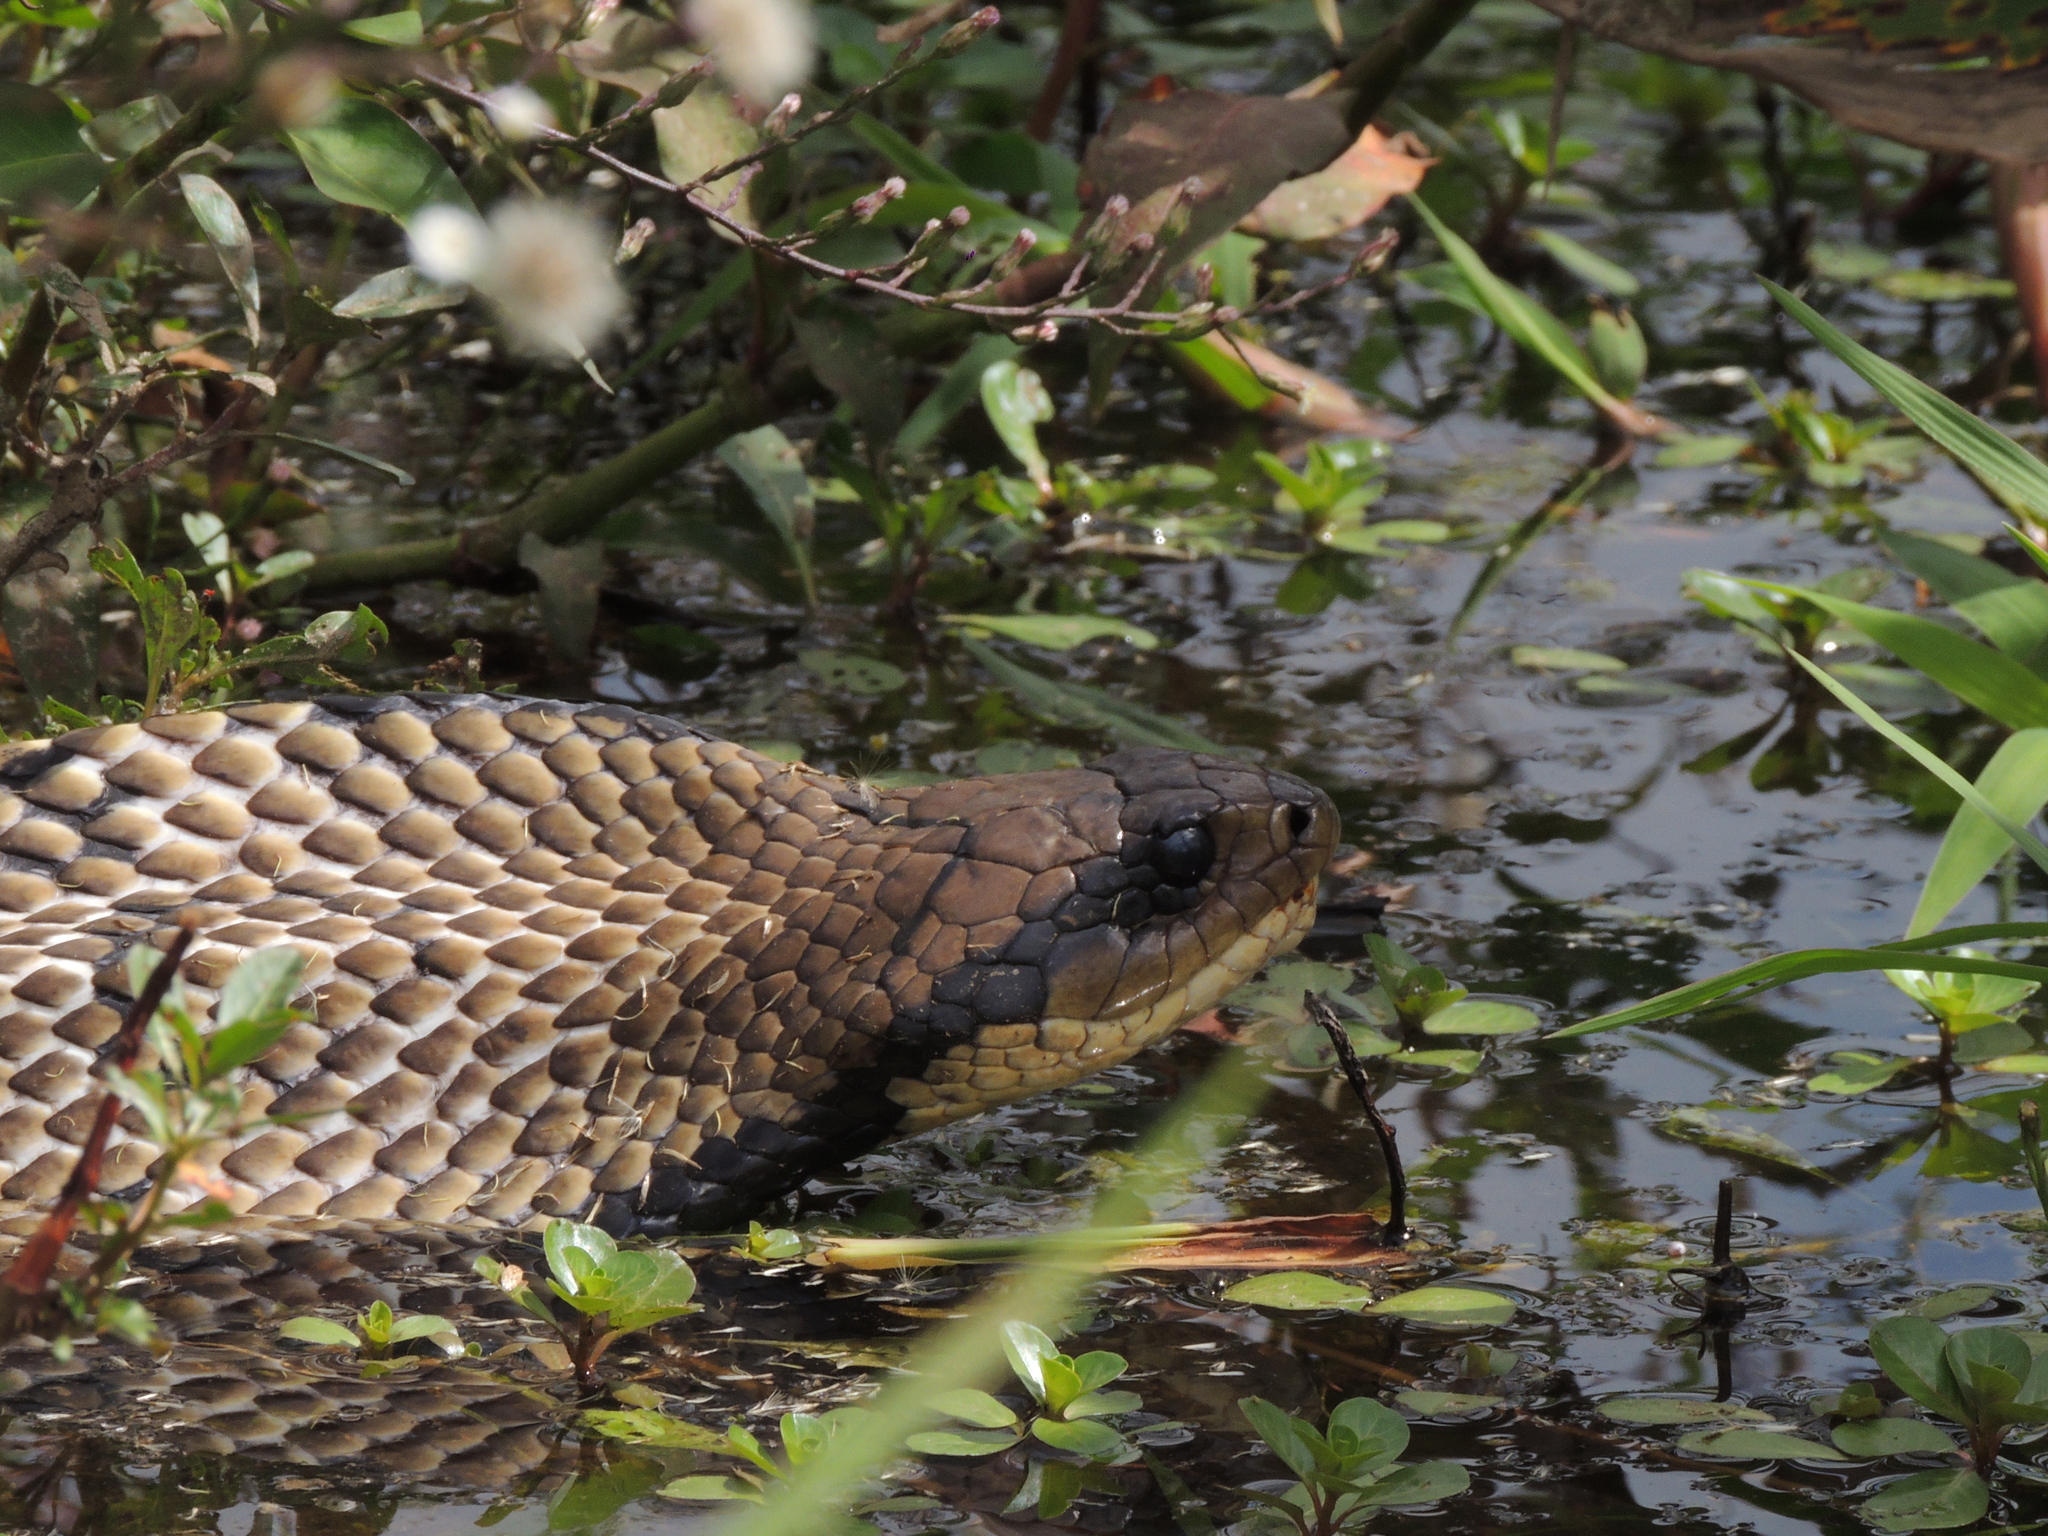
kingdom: Animalia
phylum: Chordata
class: Squamata
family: Colubridae
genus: Hydrodynastes
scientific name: Hydrodynastes gigas
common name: False water cobra
